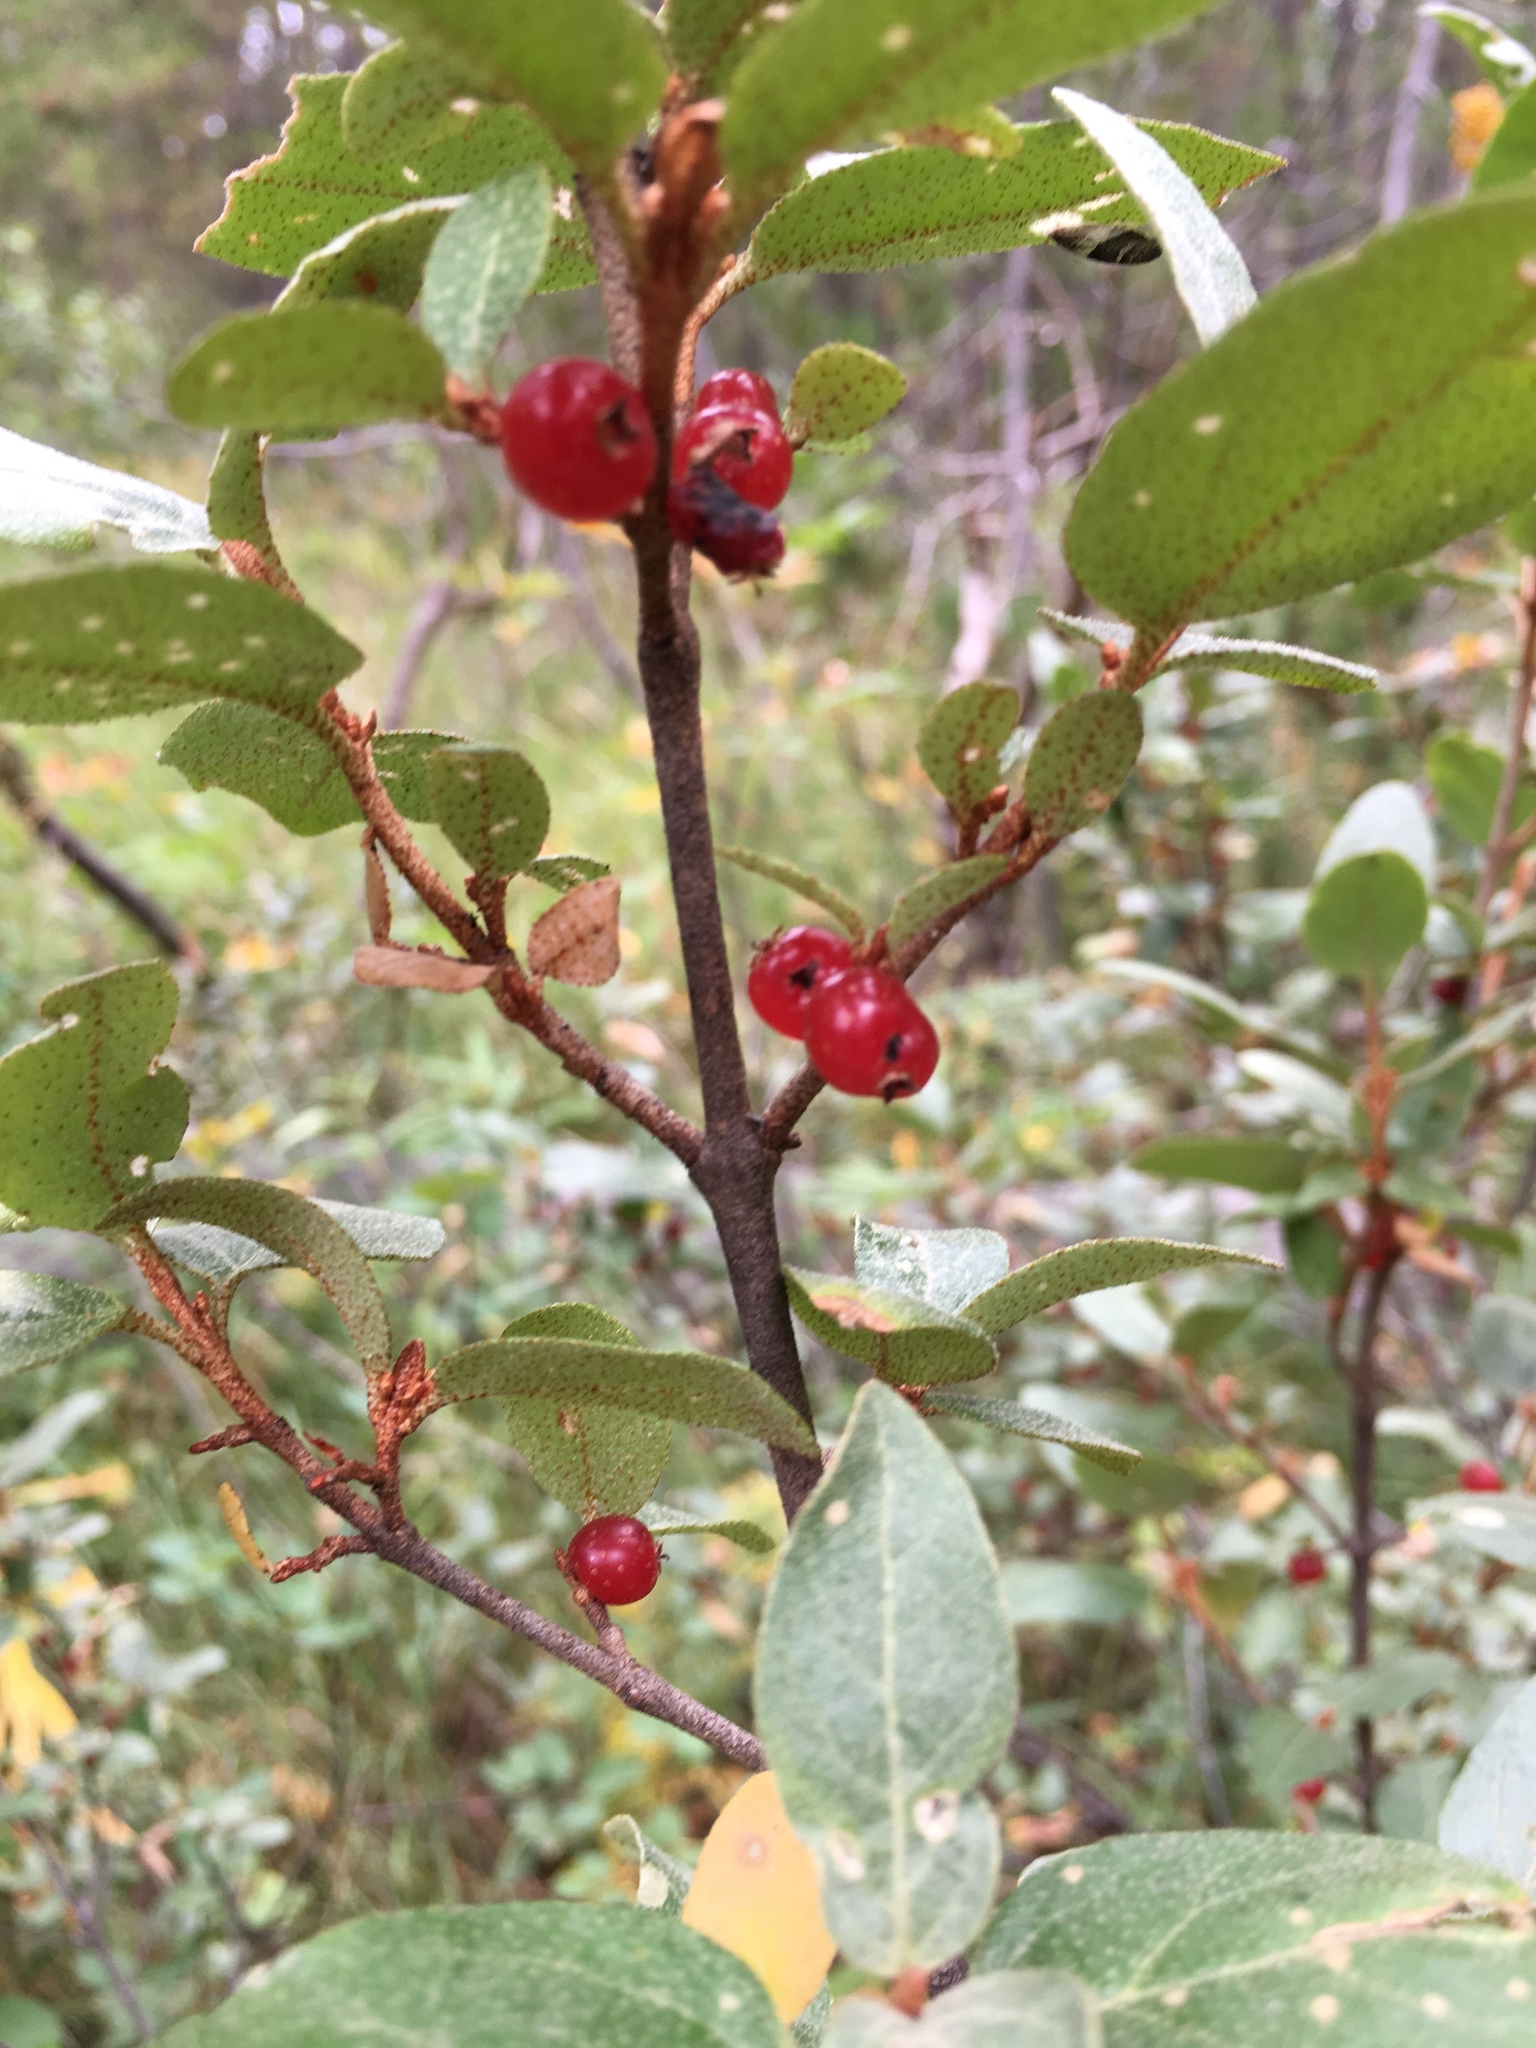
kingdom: Plantae
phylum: Tracheophyta
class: Magnoliopsida
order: Rosales
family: Elaeagnaceae
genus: Shepherdia
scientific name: Shepherdia canadensis
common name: Soapberry
